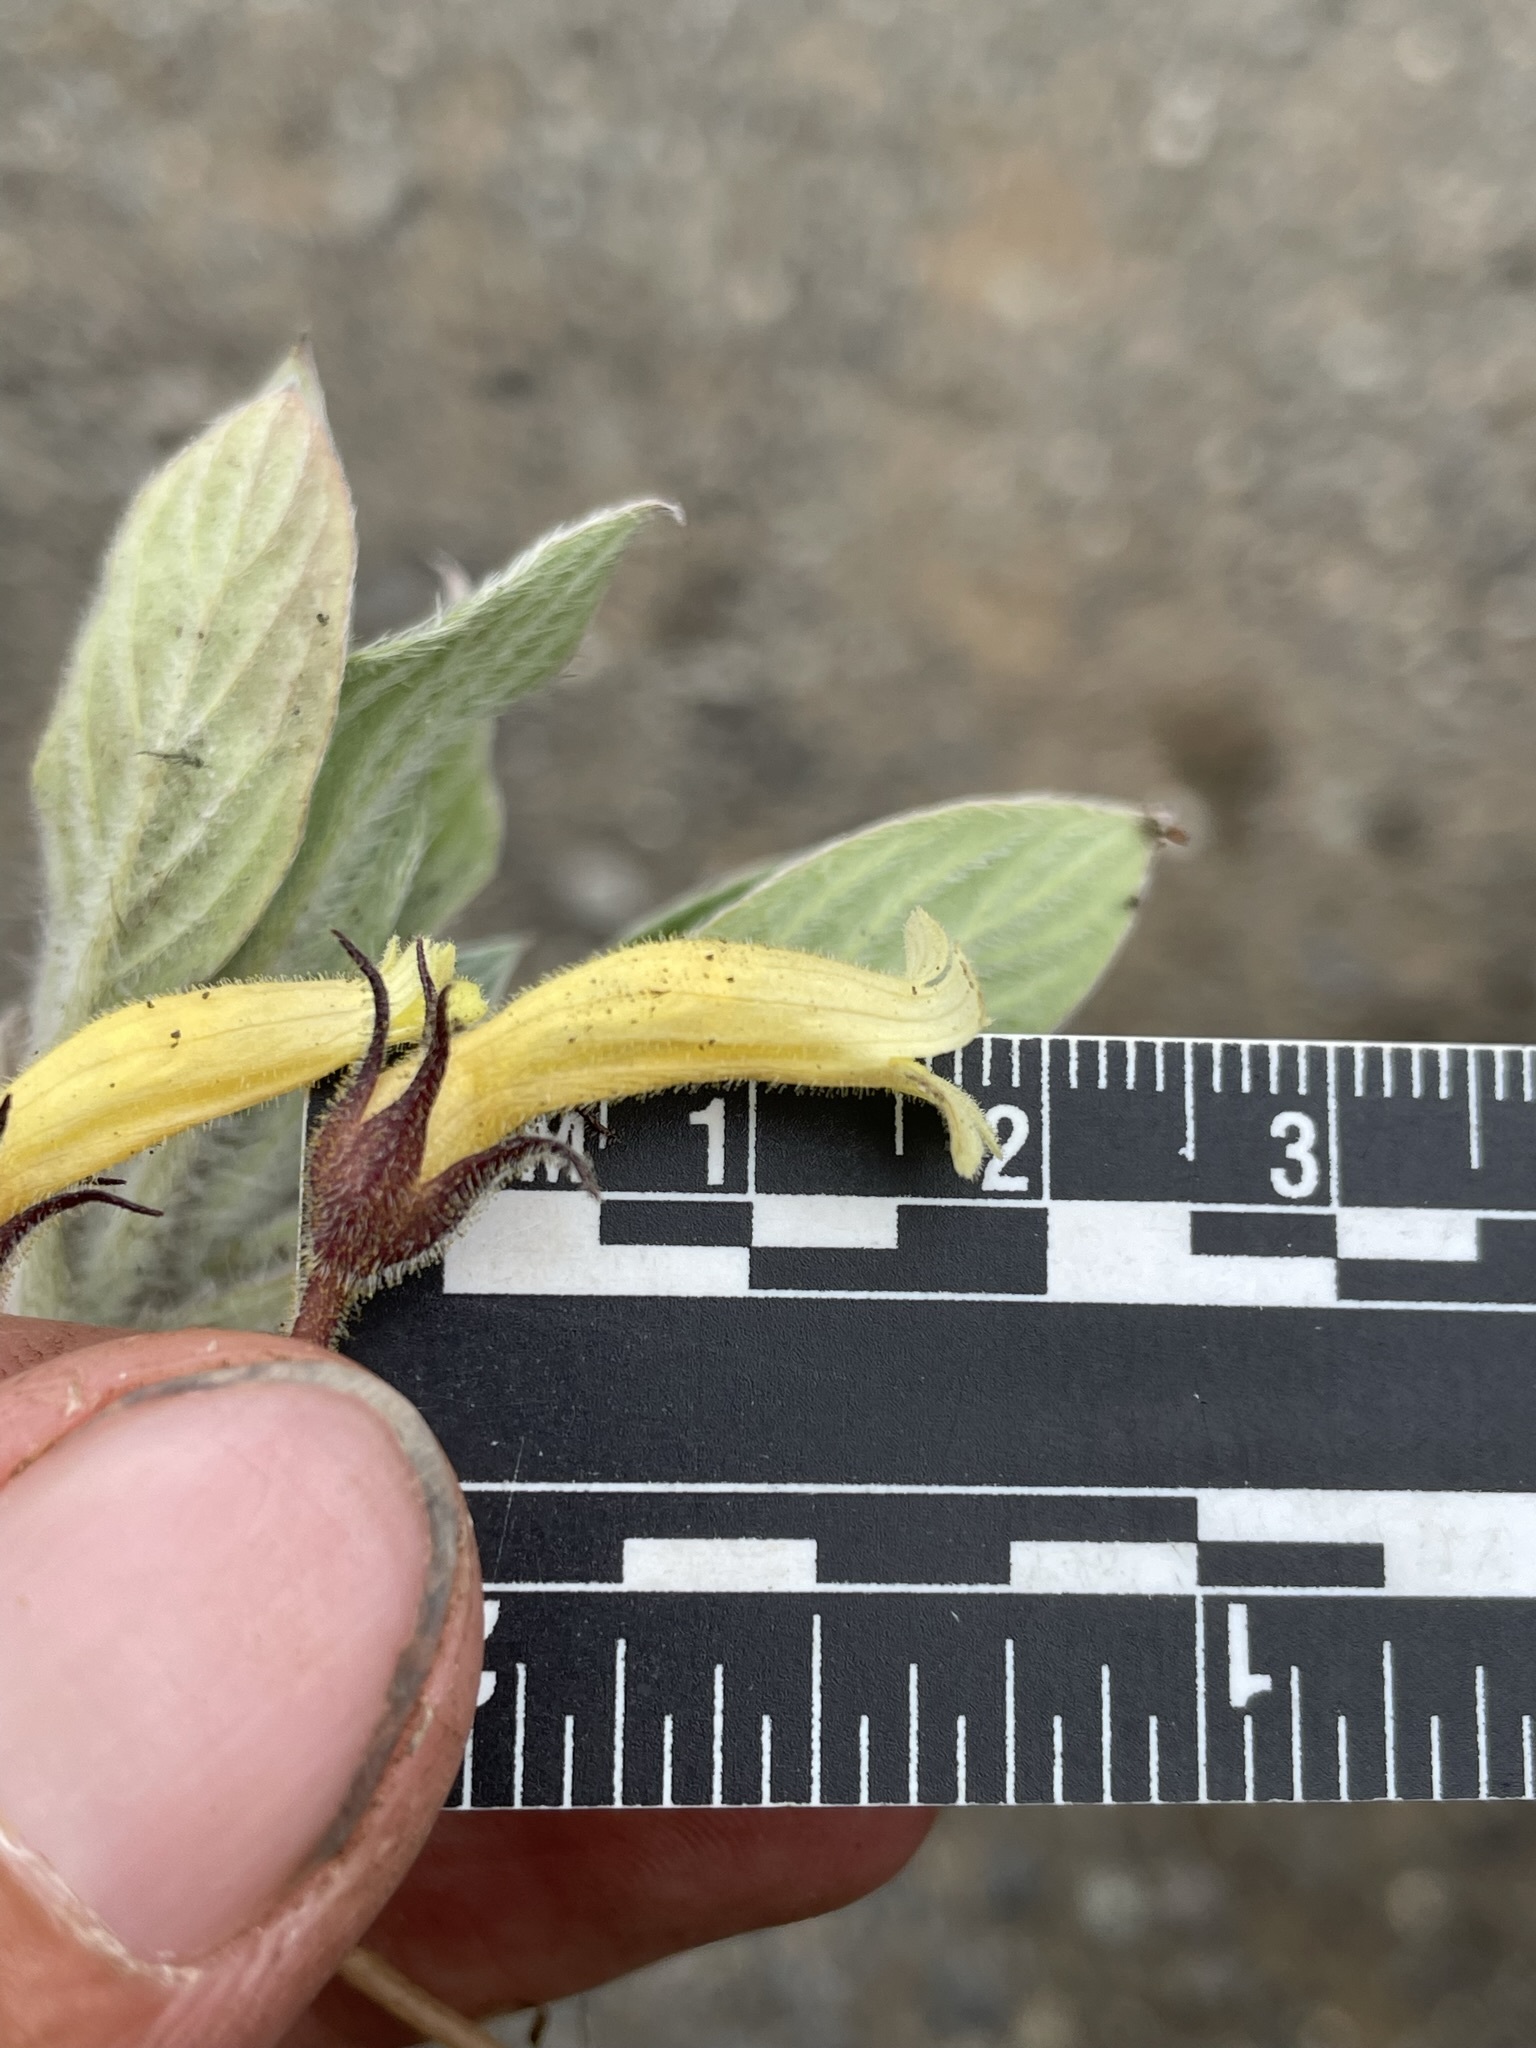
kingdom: Plantae
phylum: Tracheophyta
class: Magnoliopsida
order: Lamiales
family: Orobanchaceae
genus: Aphyllon
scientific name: Aphyllon franciscanum
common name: San francisco broomrape
